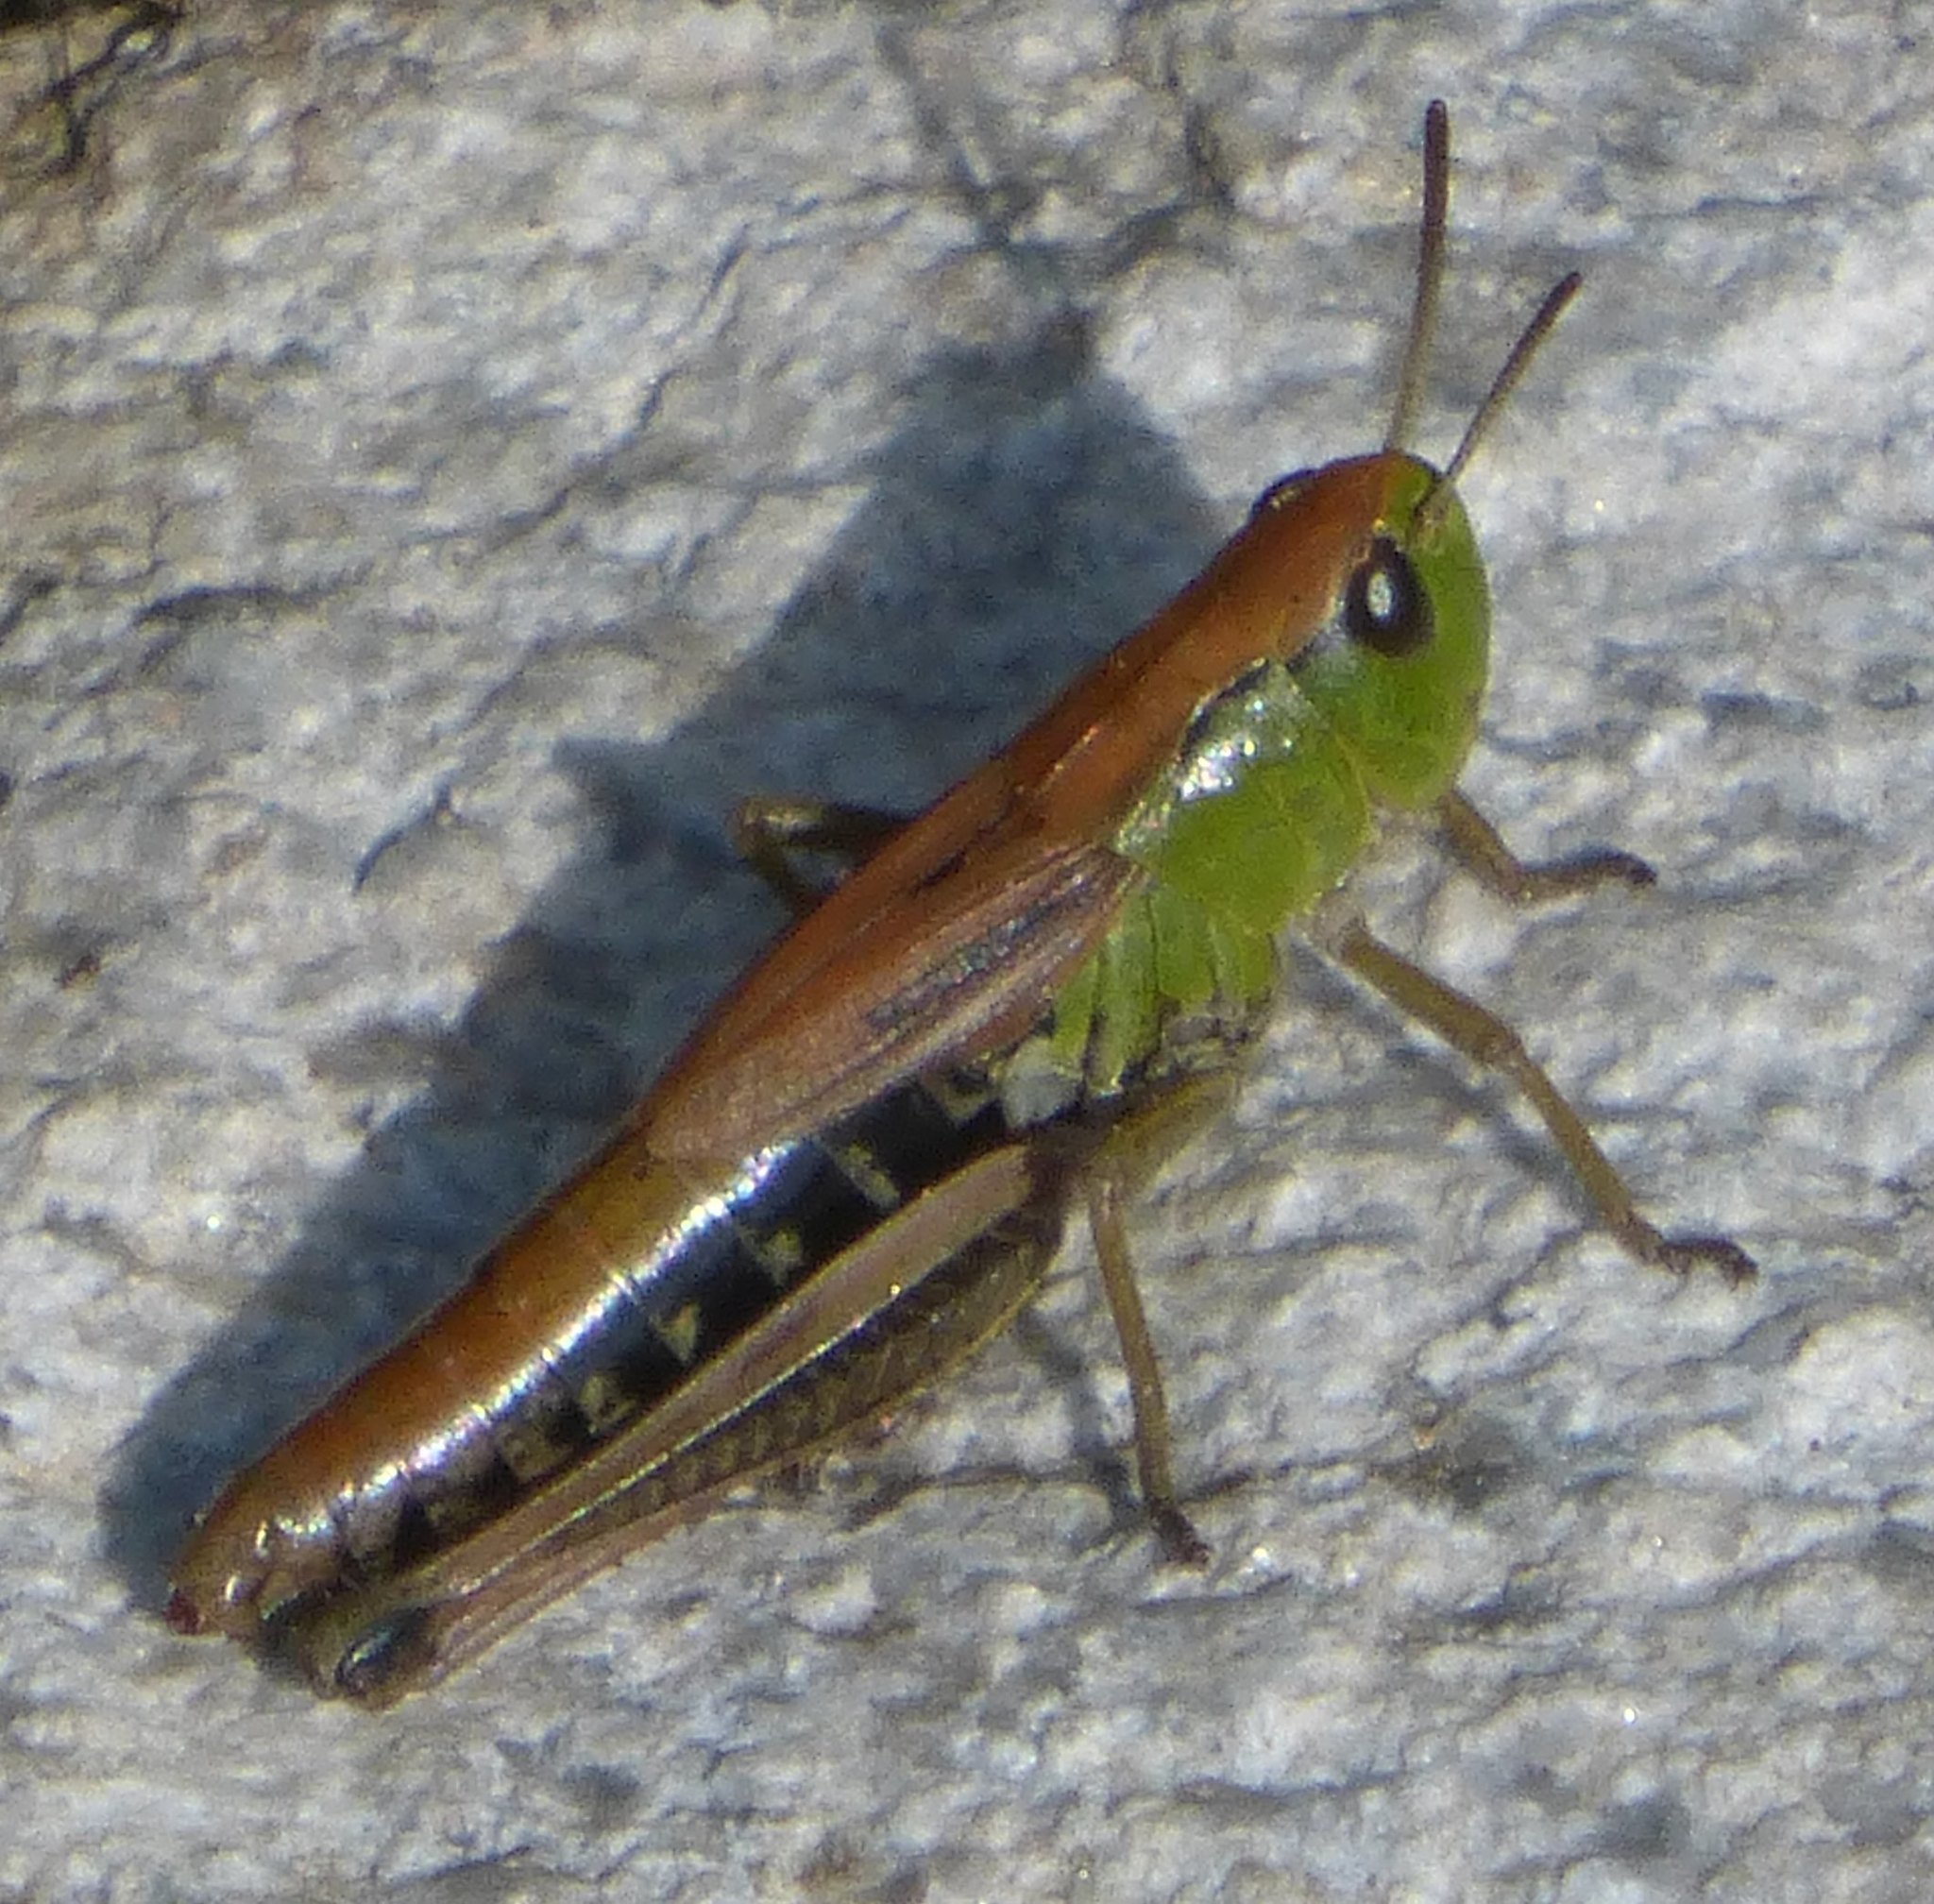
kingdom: Animalia
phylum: Arthropoda
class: Insecta
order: Orthoptera
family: Acrididae
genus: Pseudochorthippus
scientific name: Pseudochorthippus parallelus
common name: Meadow grasshopper
